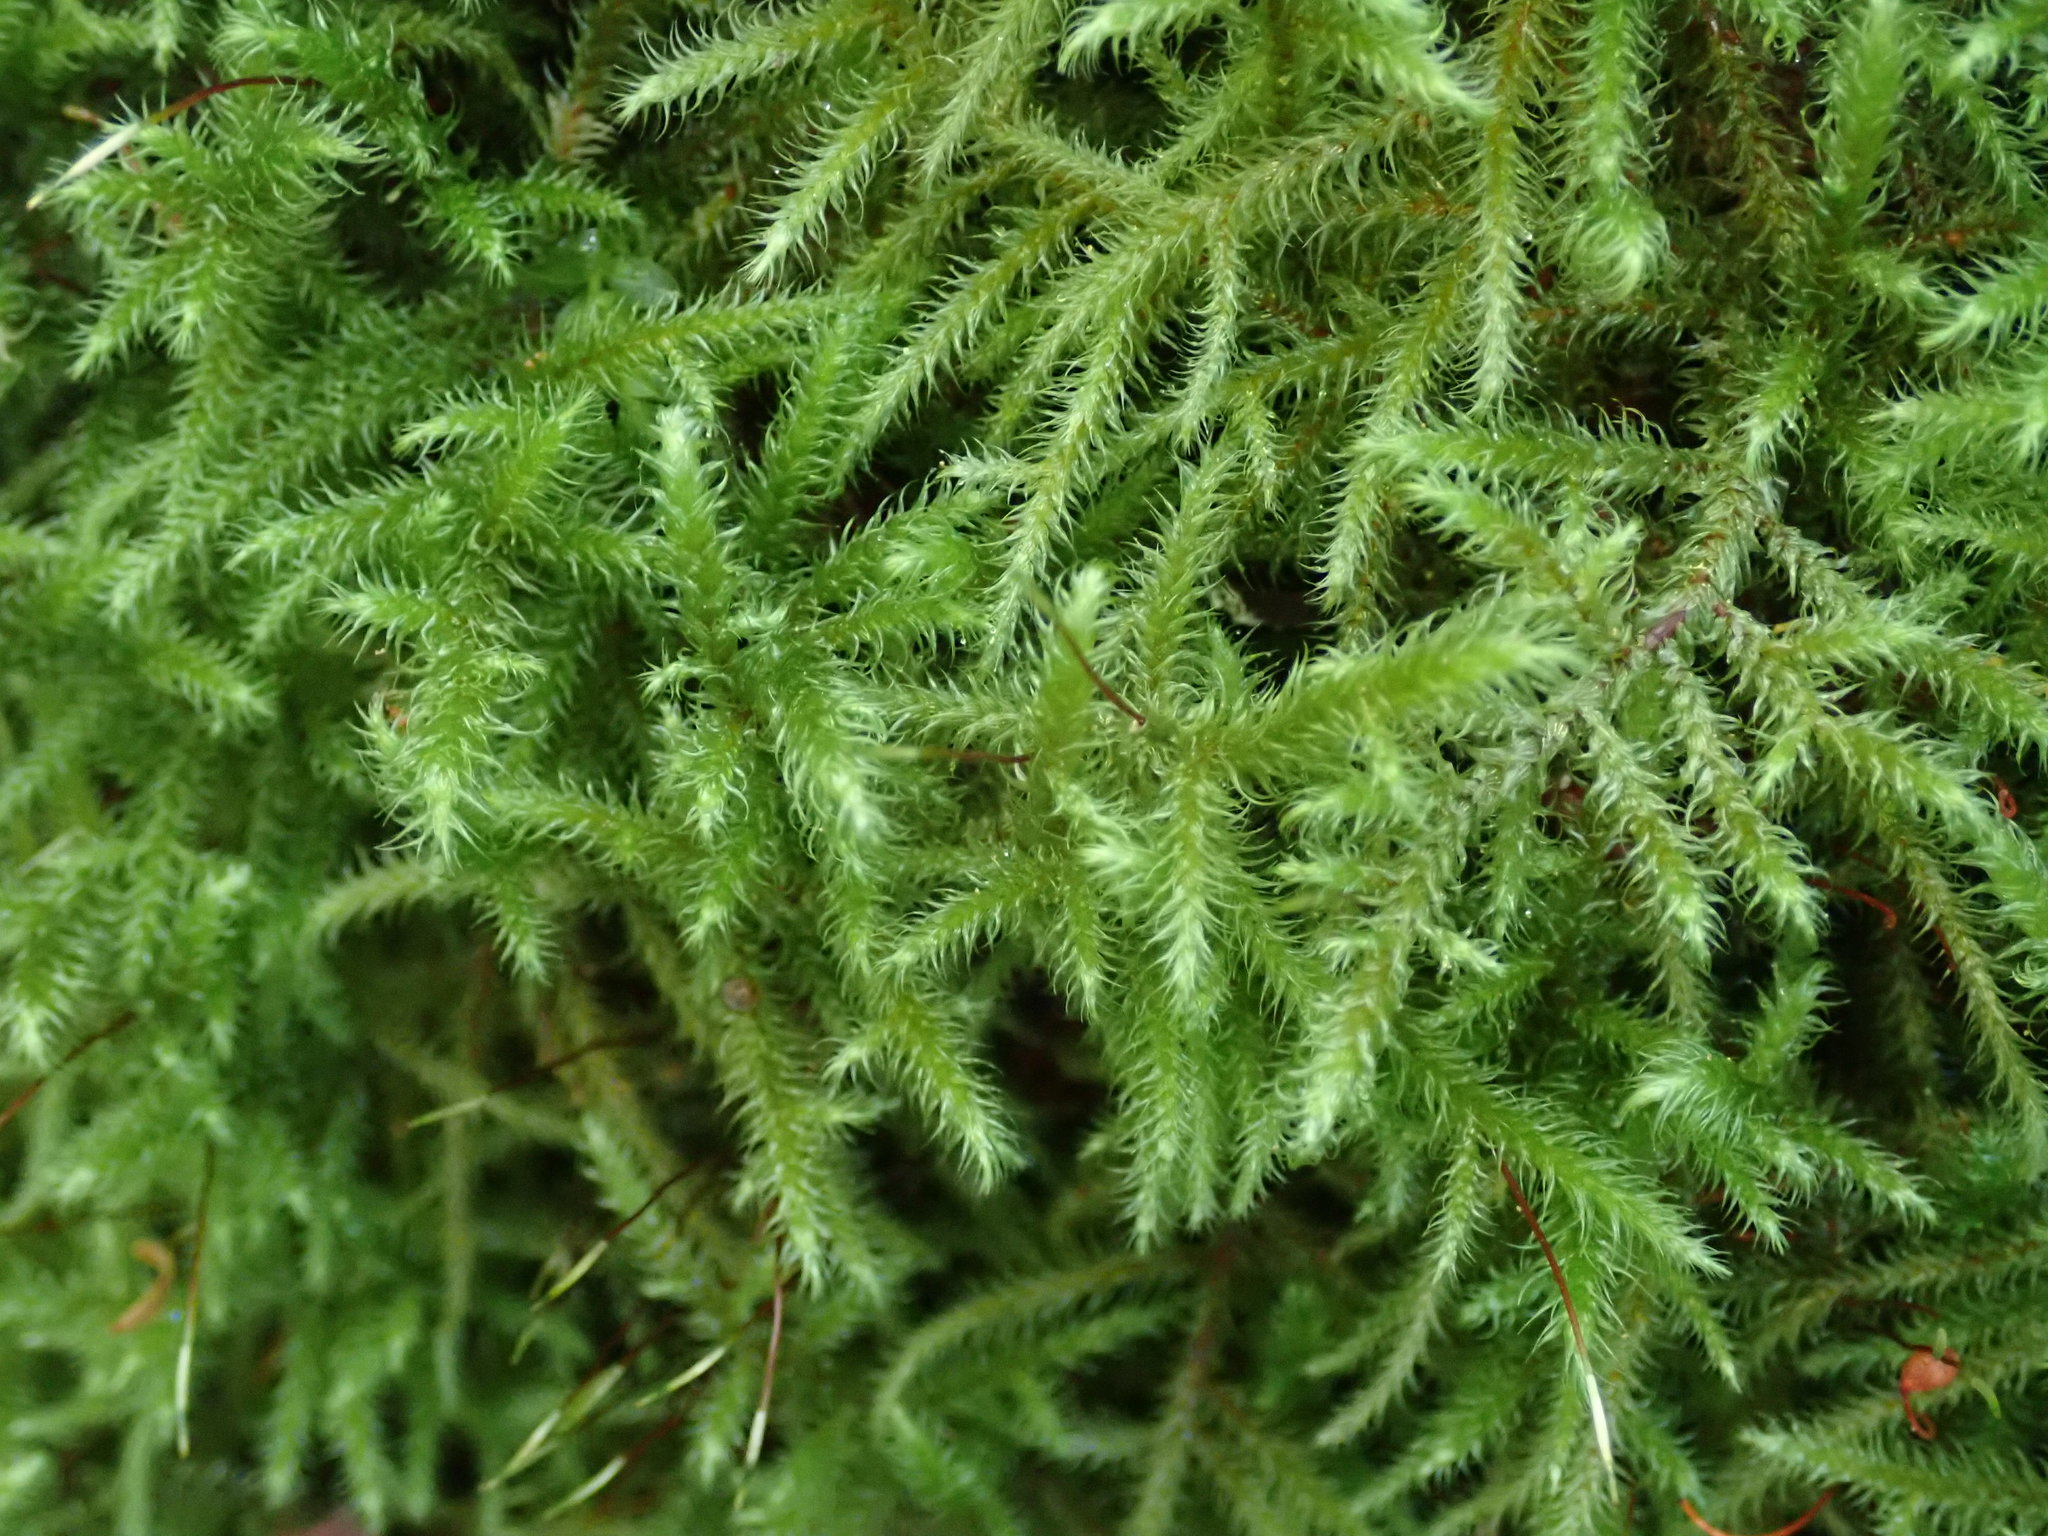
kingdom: Plantae
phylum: Bryophyta
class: Bryopsida
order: Hypnales
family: Hylocomiaceae
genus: Rhytidiadelphus
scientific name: Rhytidiadelphus loreus
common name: Lanky moss
